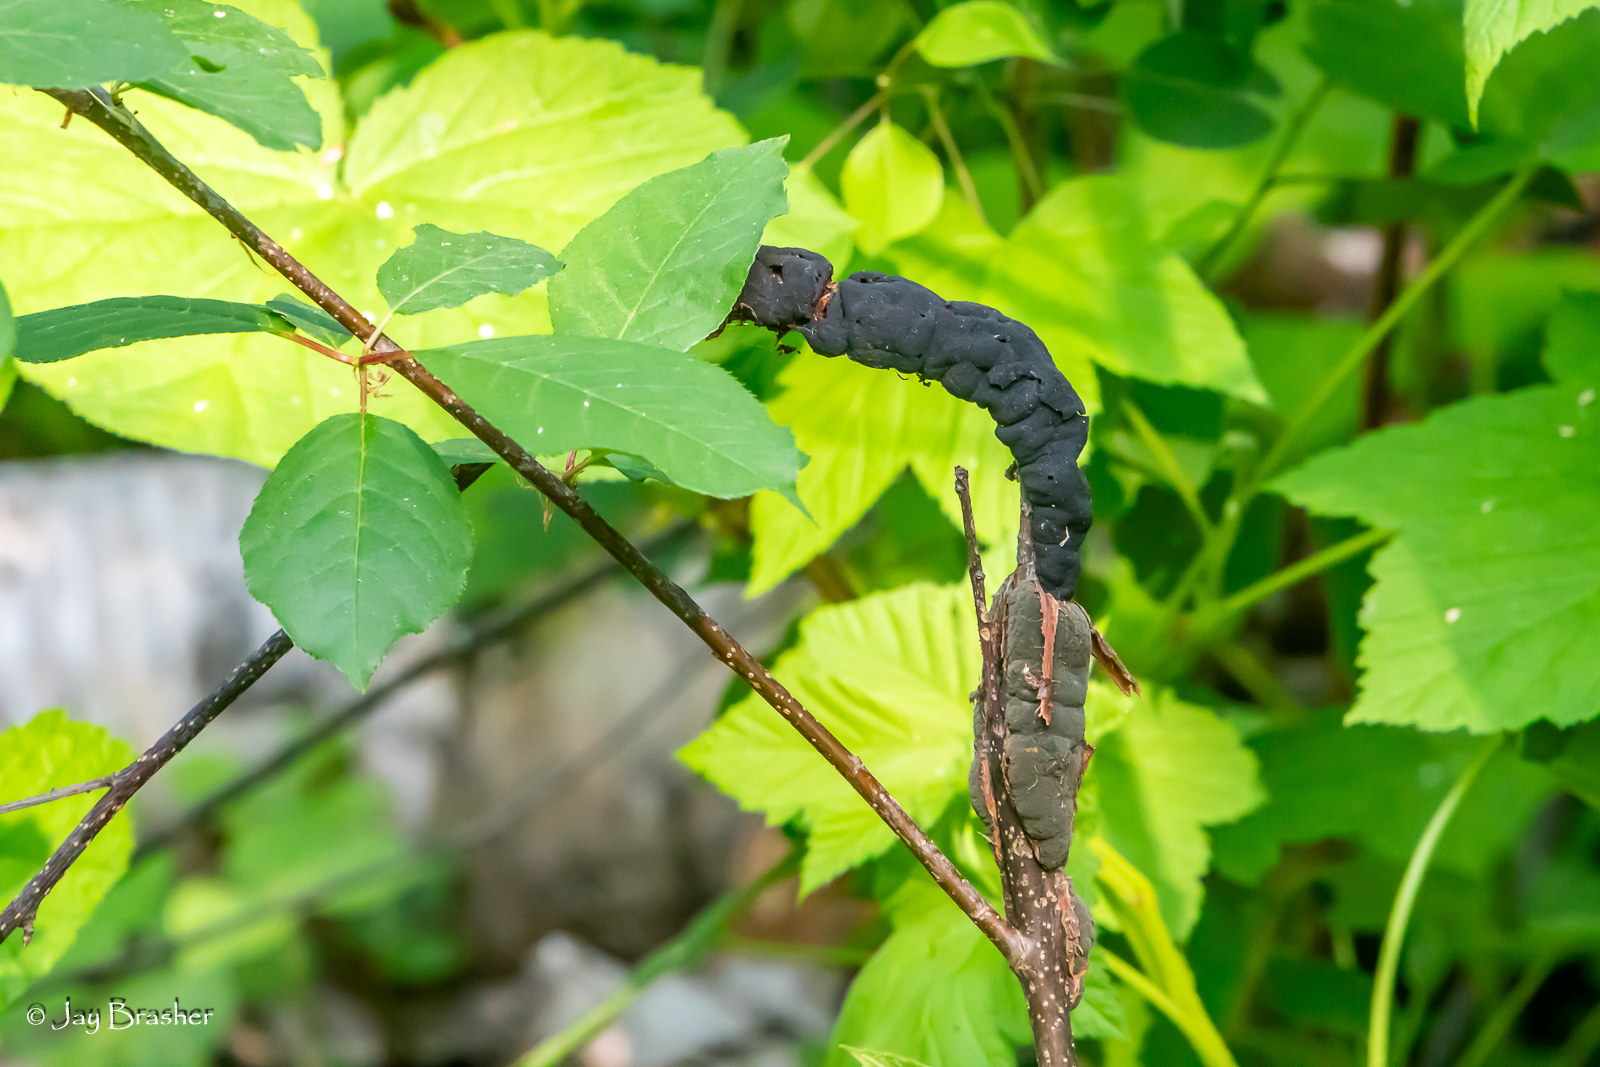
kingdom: Fungi
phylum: Ascomycota
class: Dothideomycetes
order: Venturiales
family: Venturiaceae
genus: Apiosporina
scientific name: Apiosporina morbosa
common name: Black knot
